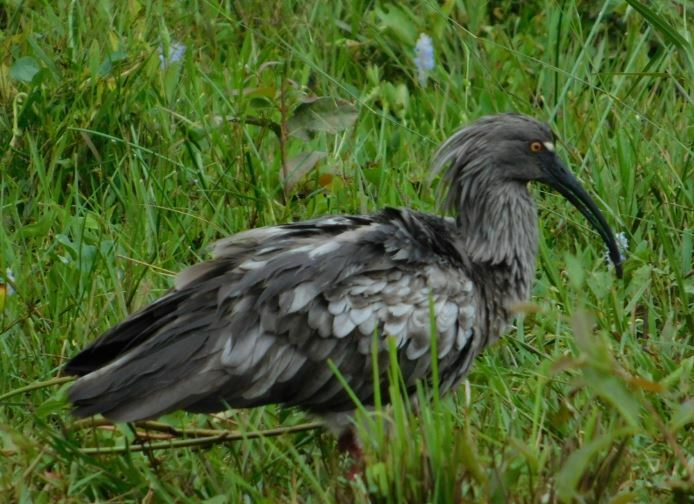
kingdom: Animalia
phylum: Chordata
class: Aves
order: Pelecaniformes
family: Threskiornithidae
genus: Theristicus
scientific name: Theristicus caerulescens
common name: Plumbeous ibis
